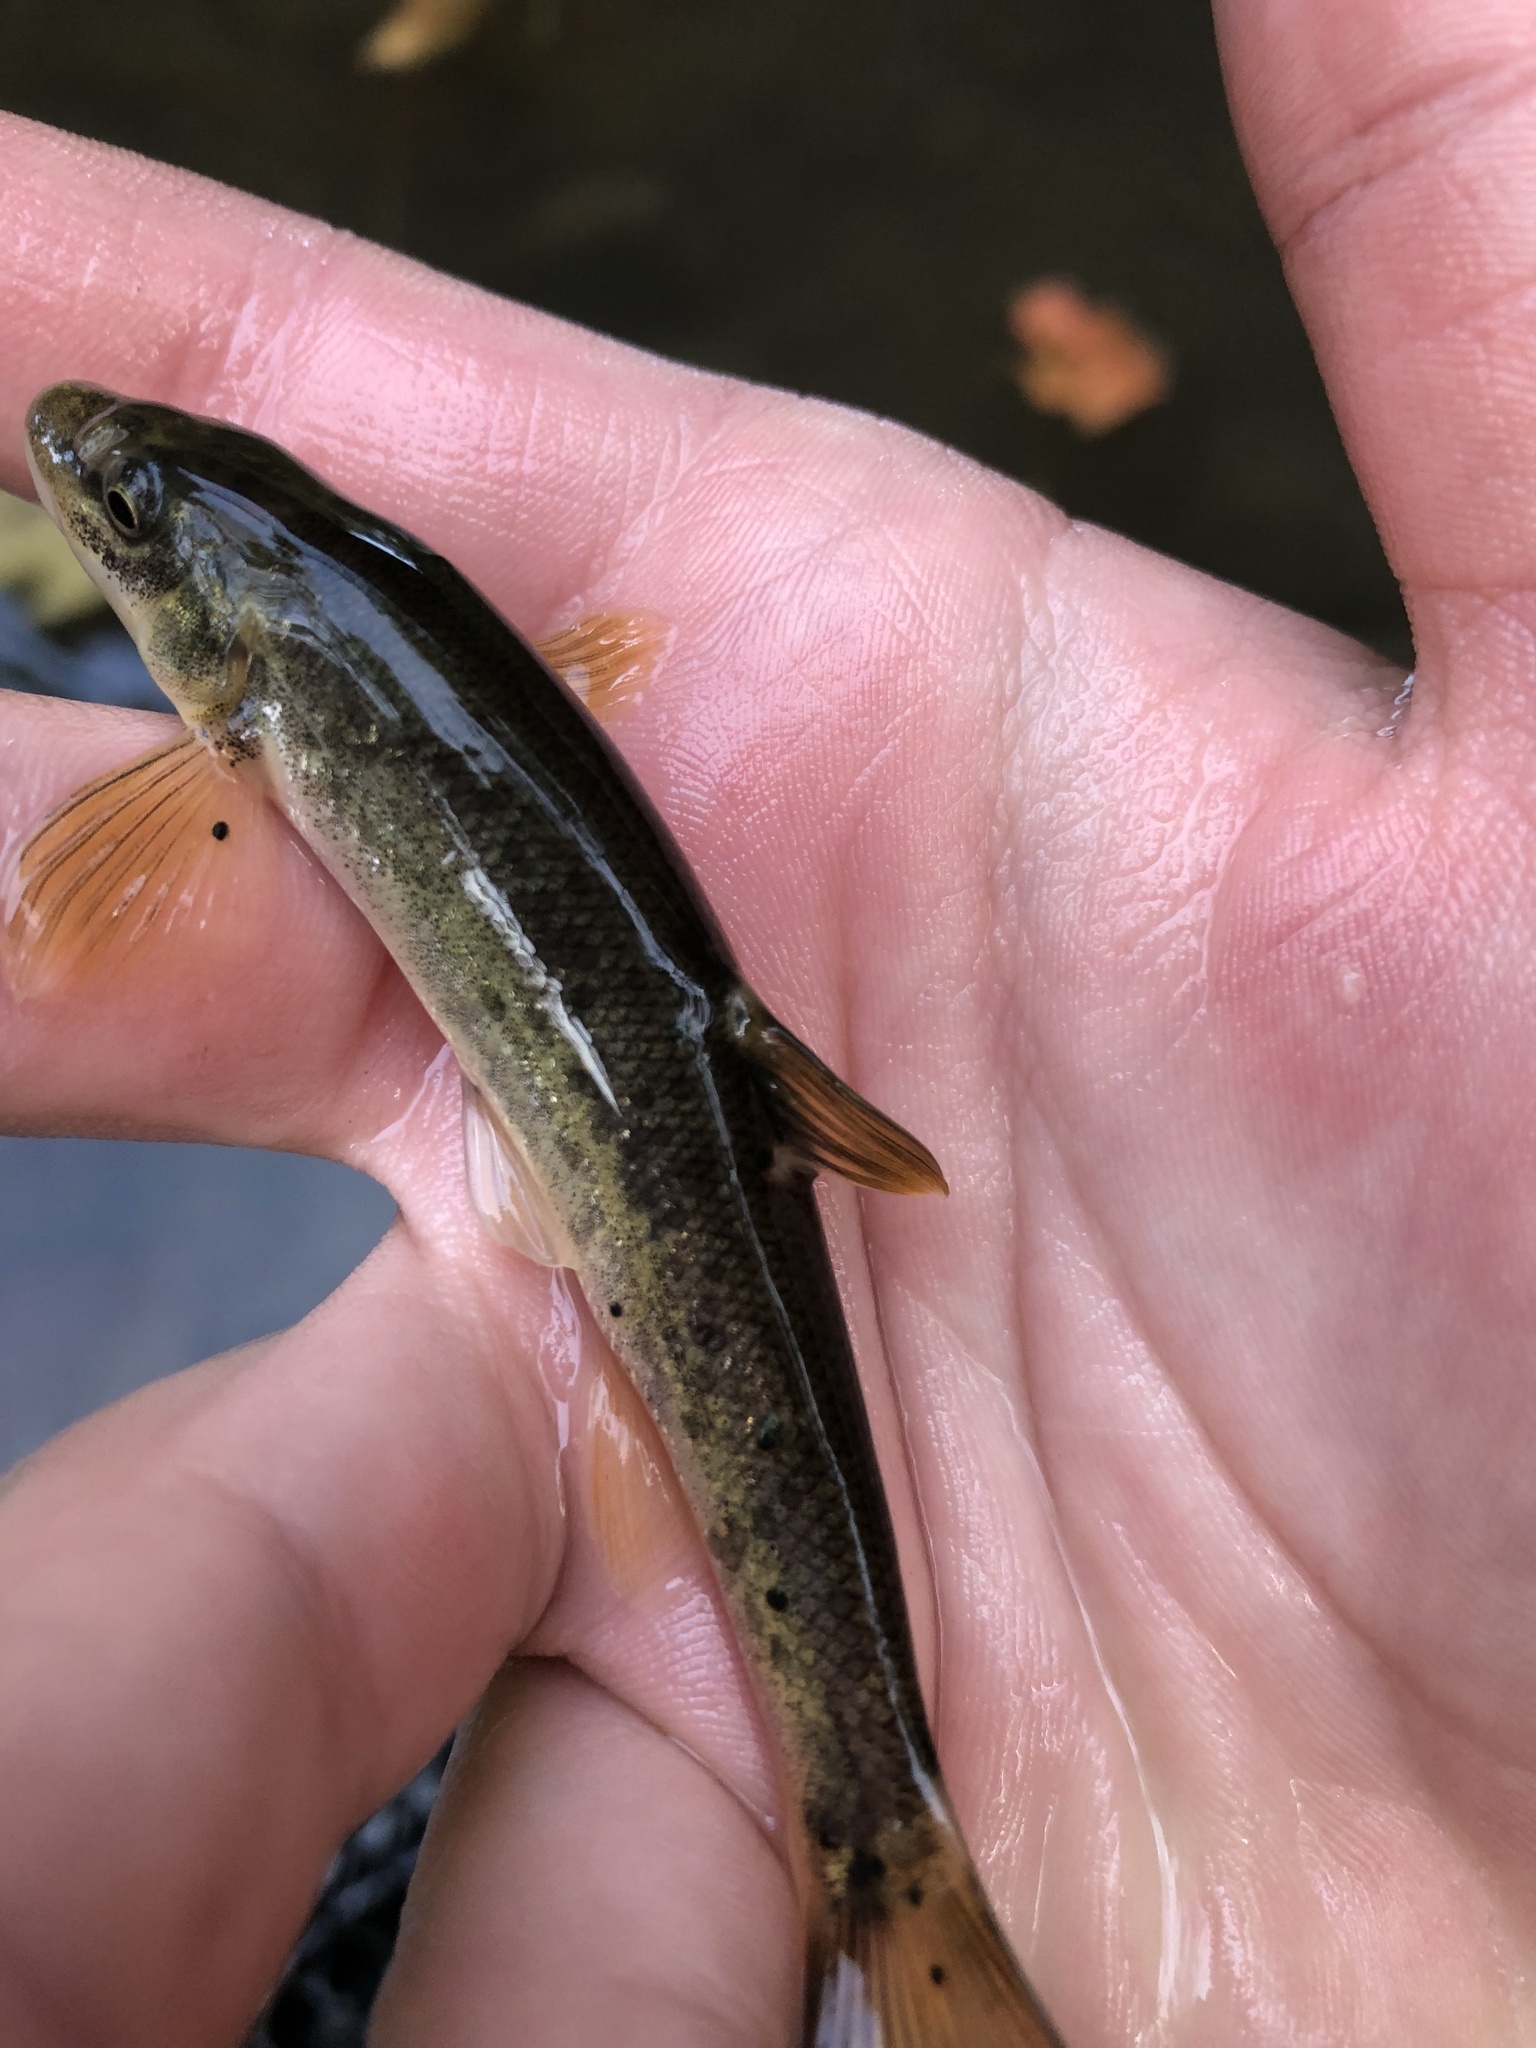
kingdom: Animalia
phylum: Chordata
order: Cypriniformes
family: Cyprinidae
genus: Rhinichthys
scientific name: Rhinichthys cataractae
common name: Longnose dace
